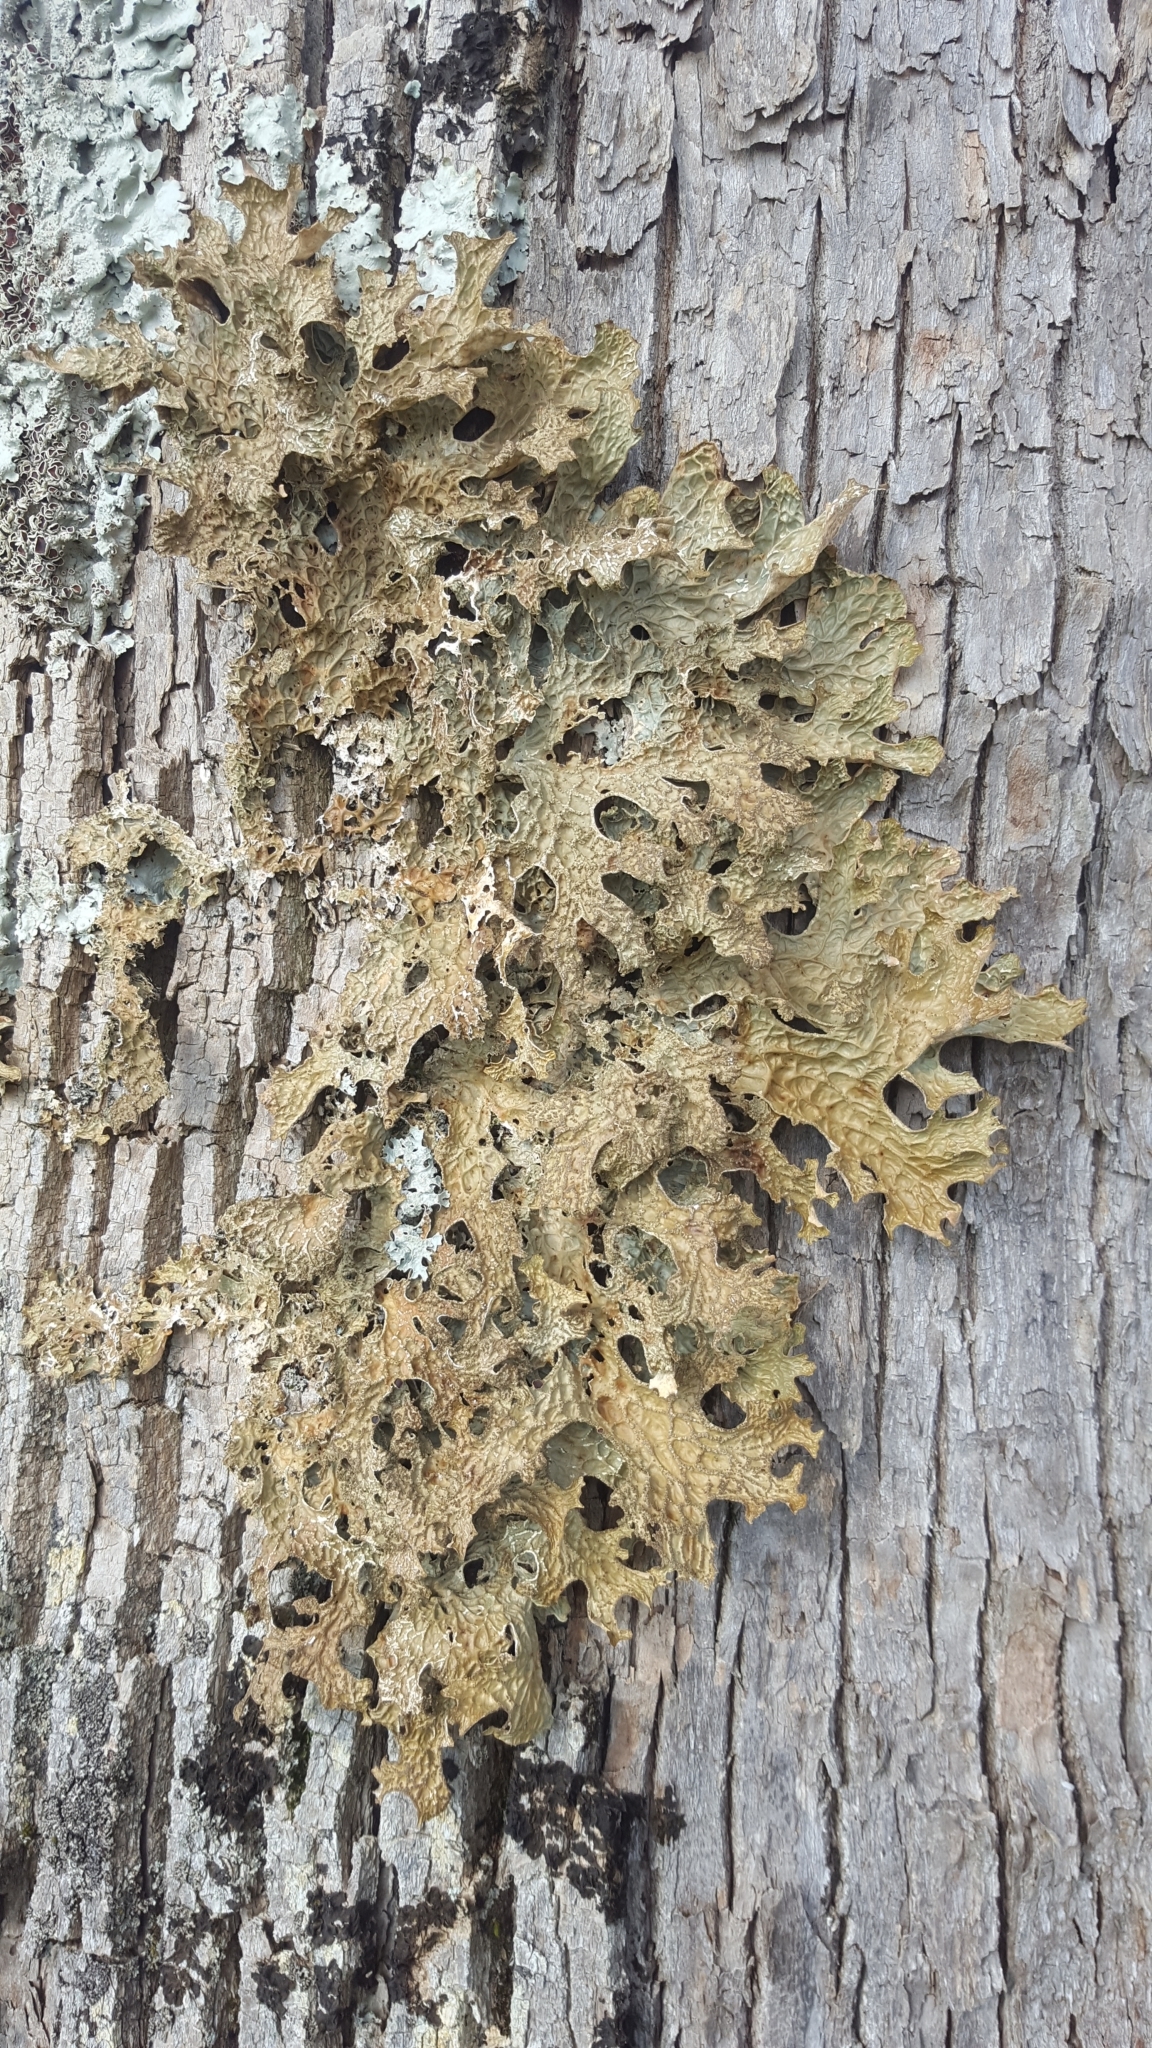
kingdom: Fungi
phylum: Ascomycota
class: Lecanoromycetes
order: Peltigerales
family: Lobariaceae
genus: Lobaria
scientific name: Lobaria pulmonaria
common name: Lungwort
